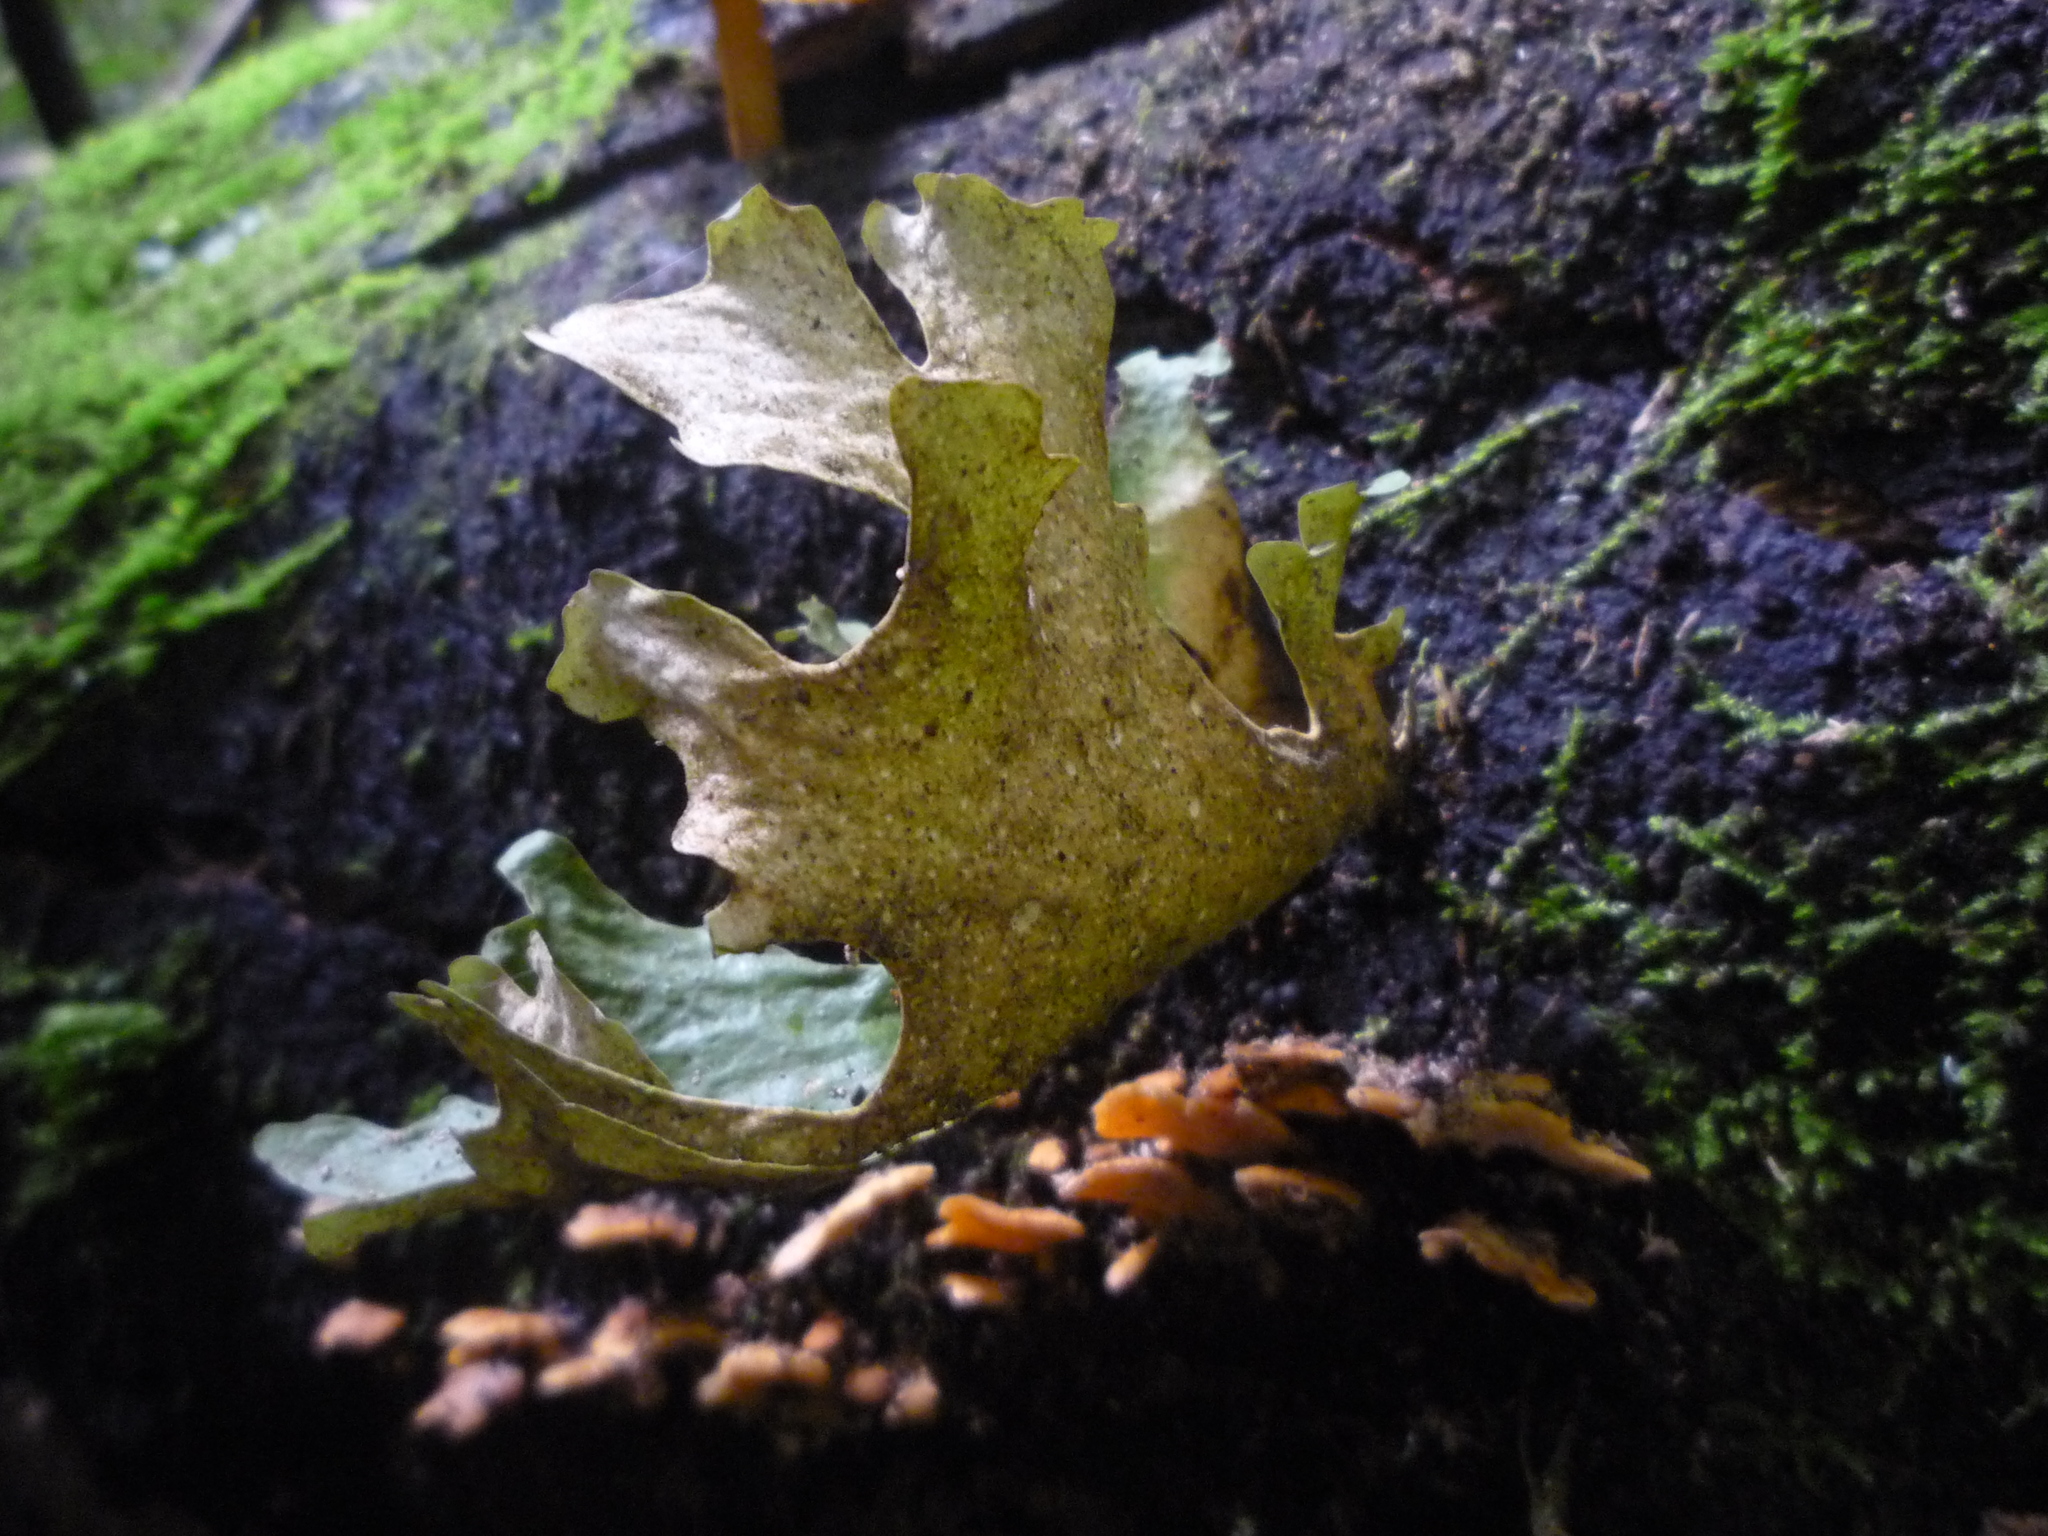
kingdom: Fungi
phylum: Ascomycota
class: Lecanoromycetes
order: Peltigerales
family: Lobariaceae
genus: Sticta
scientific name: Sticta latifrons
